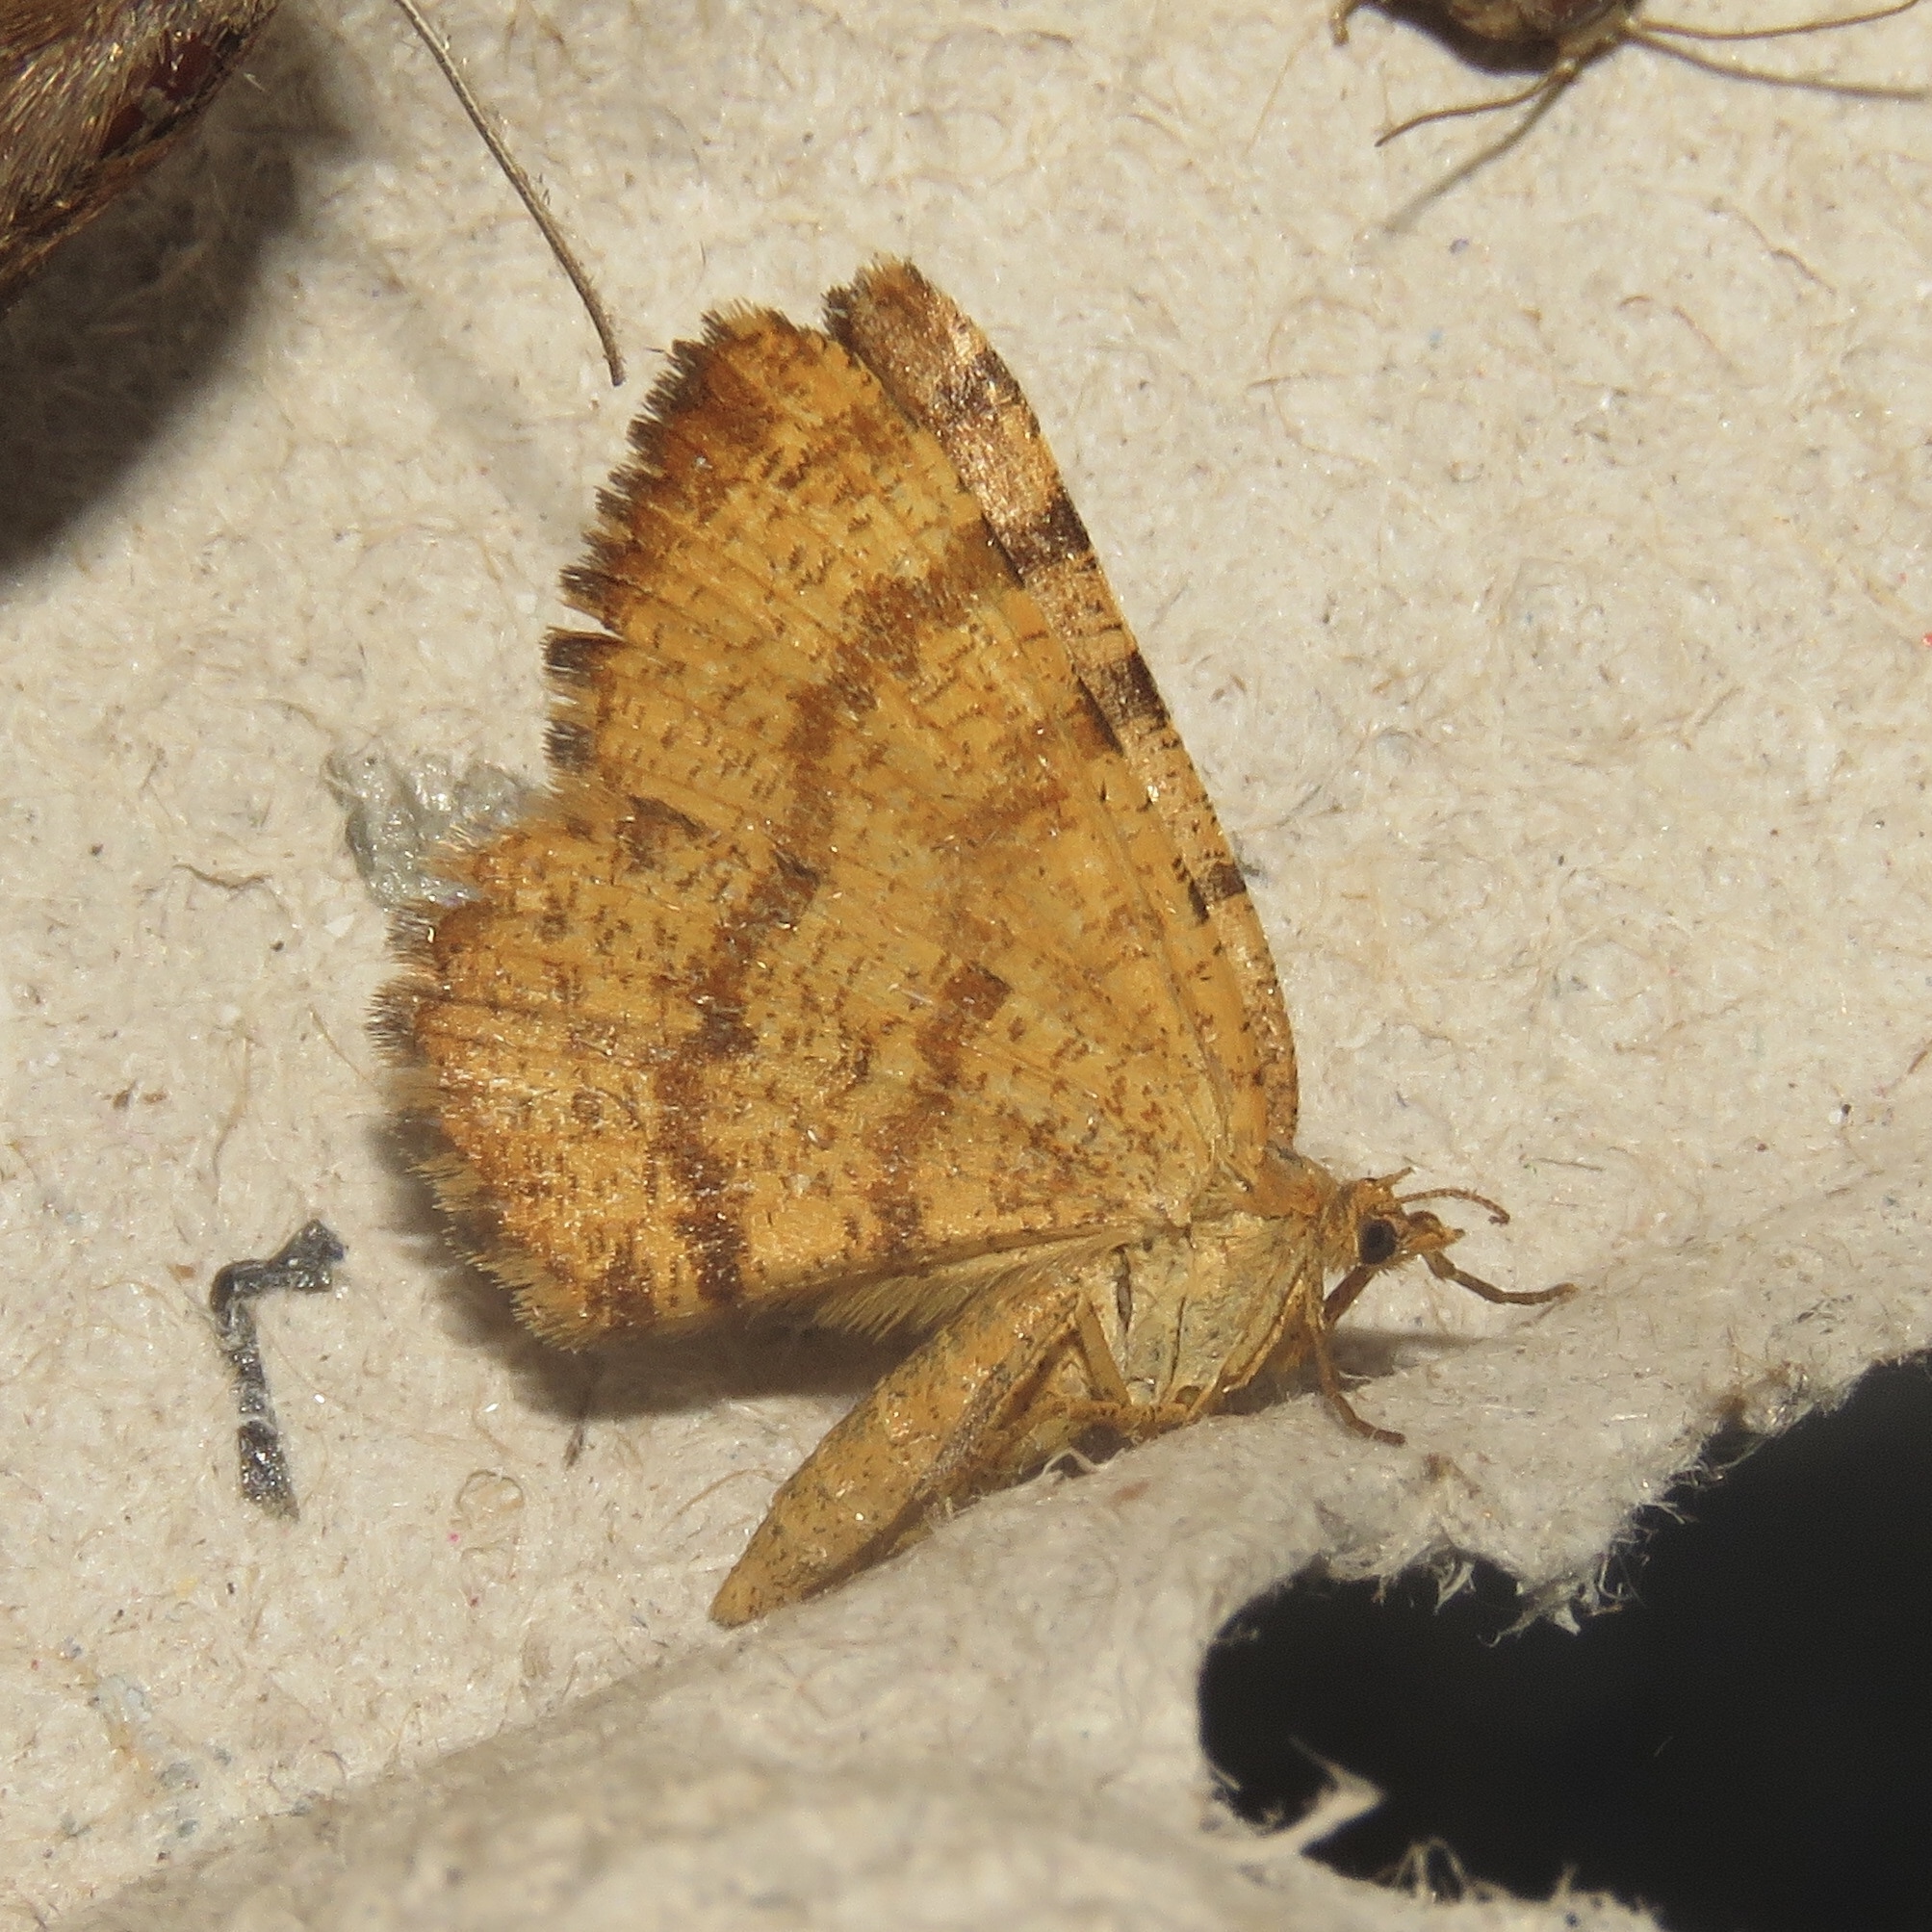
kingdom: Animalia
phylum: Arthropoda
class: Insecta
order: Lepidoptera
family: Geometridae
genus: Macaria
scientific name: Macaria brunneata
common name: Rannoch looper
